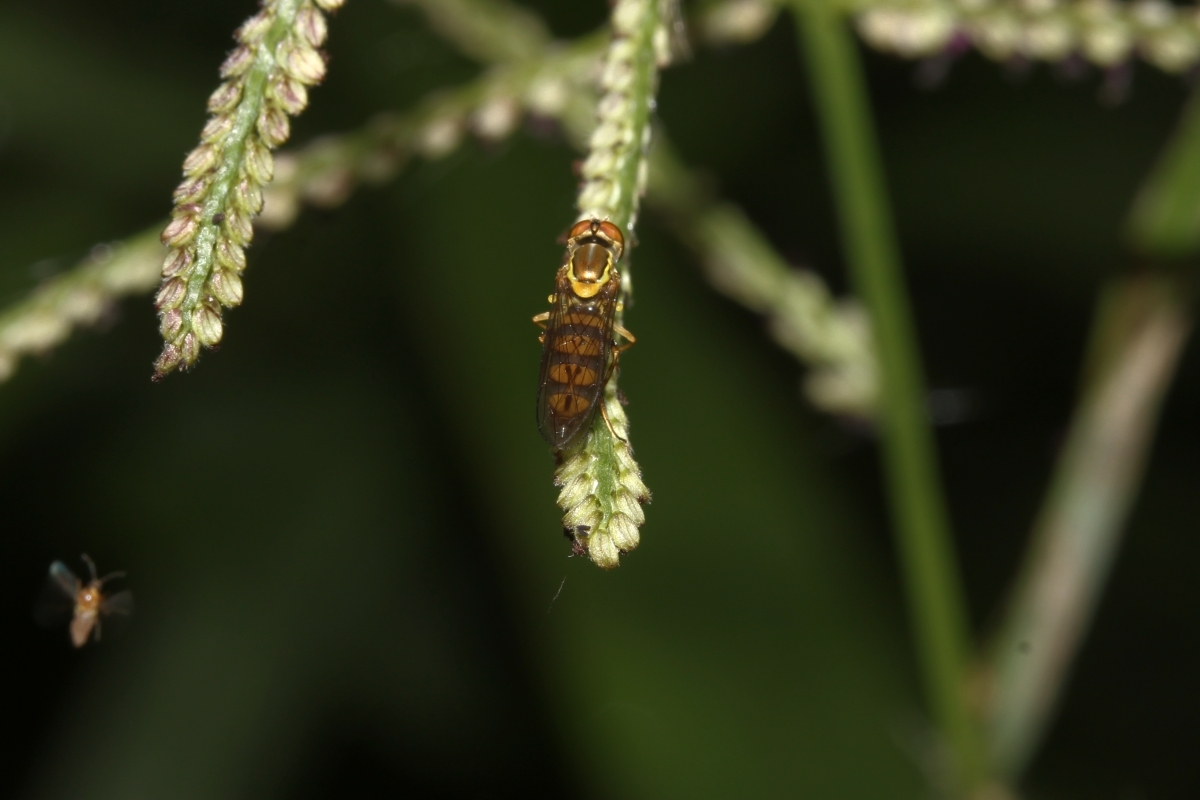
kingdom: Animalia
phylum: Arthropoda
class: Insecta
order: Diptera
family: Syrphidae
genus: Toxomerus
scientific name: Toxomerus mutuus
